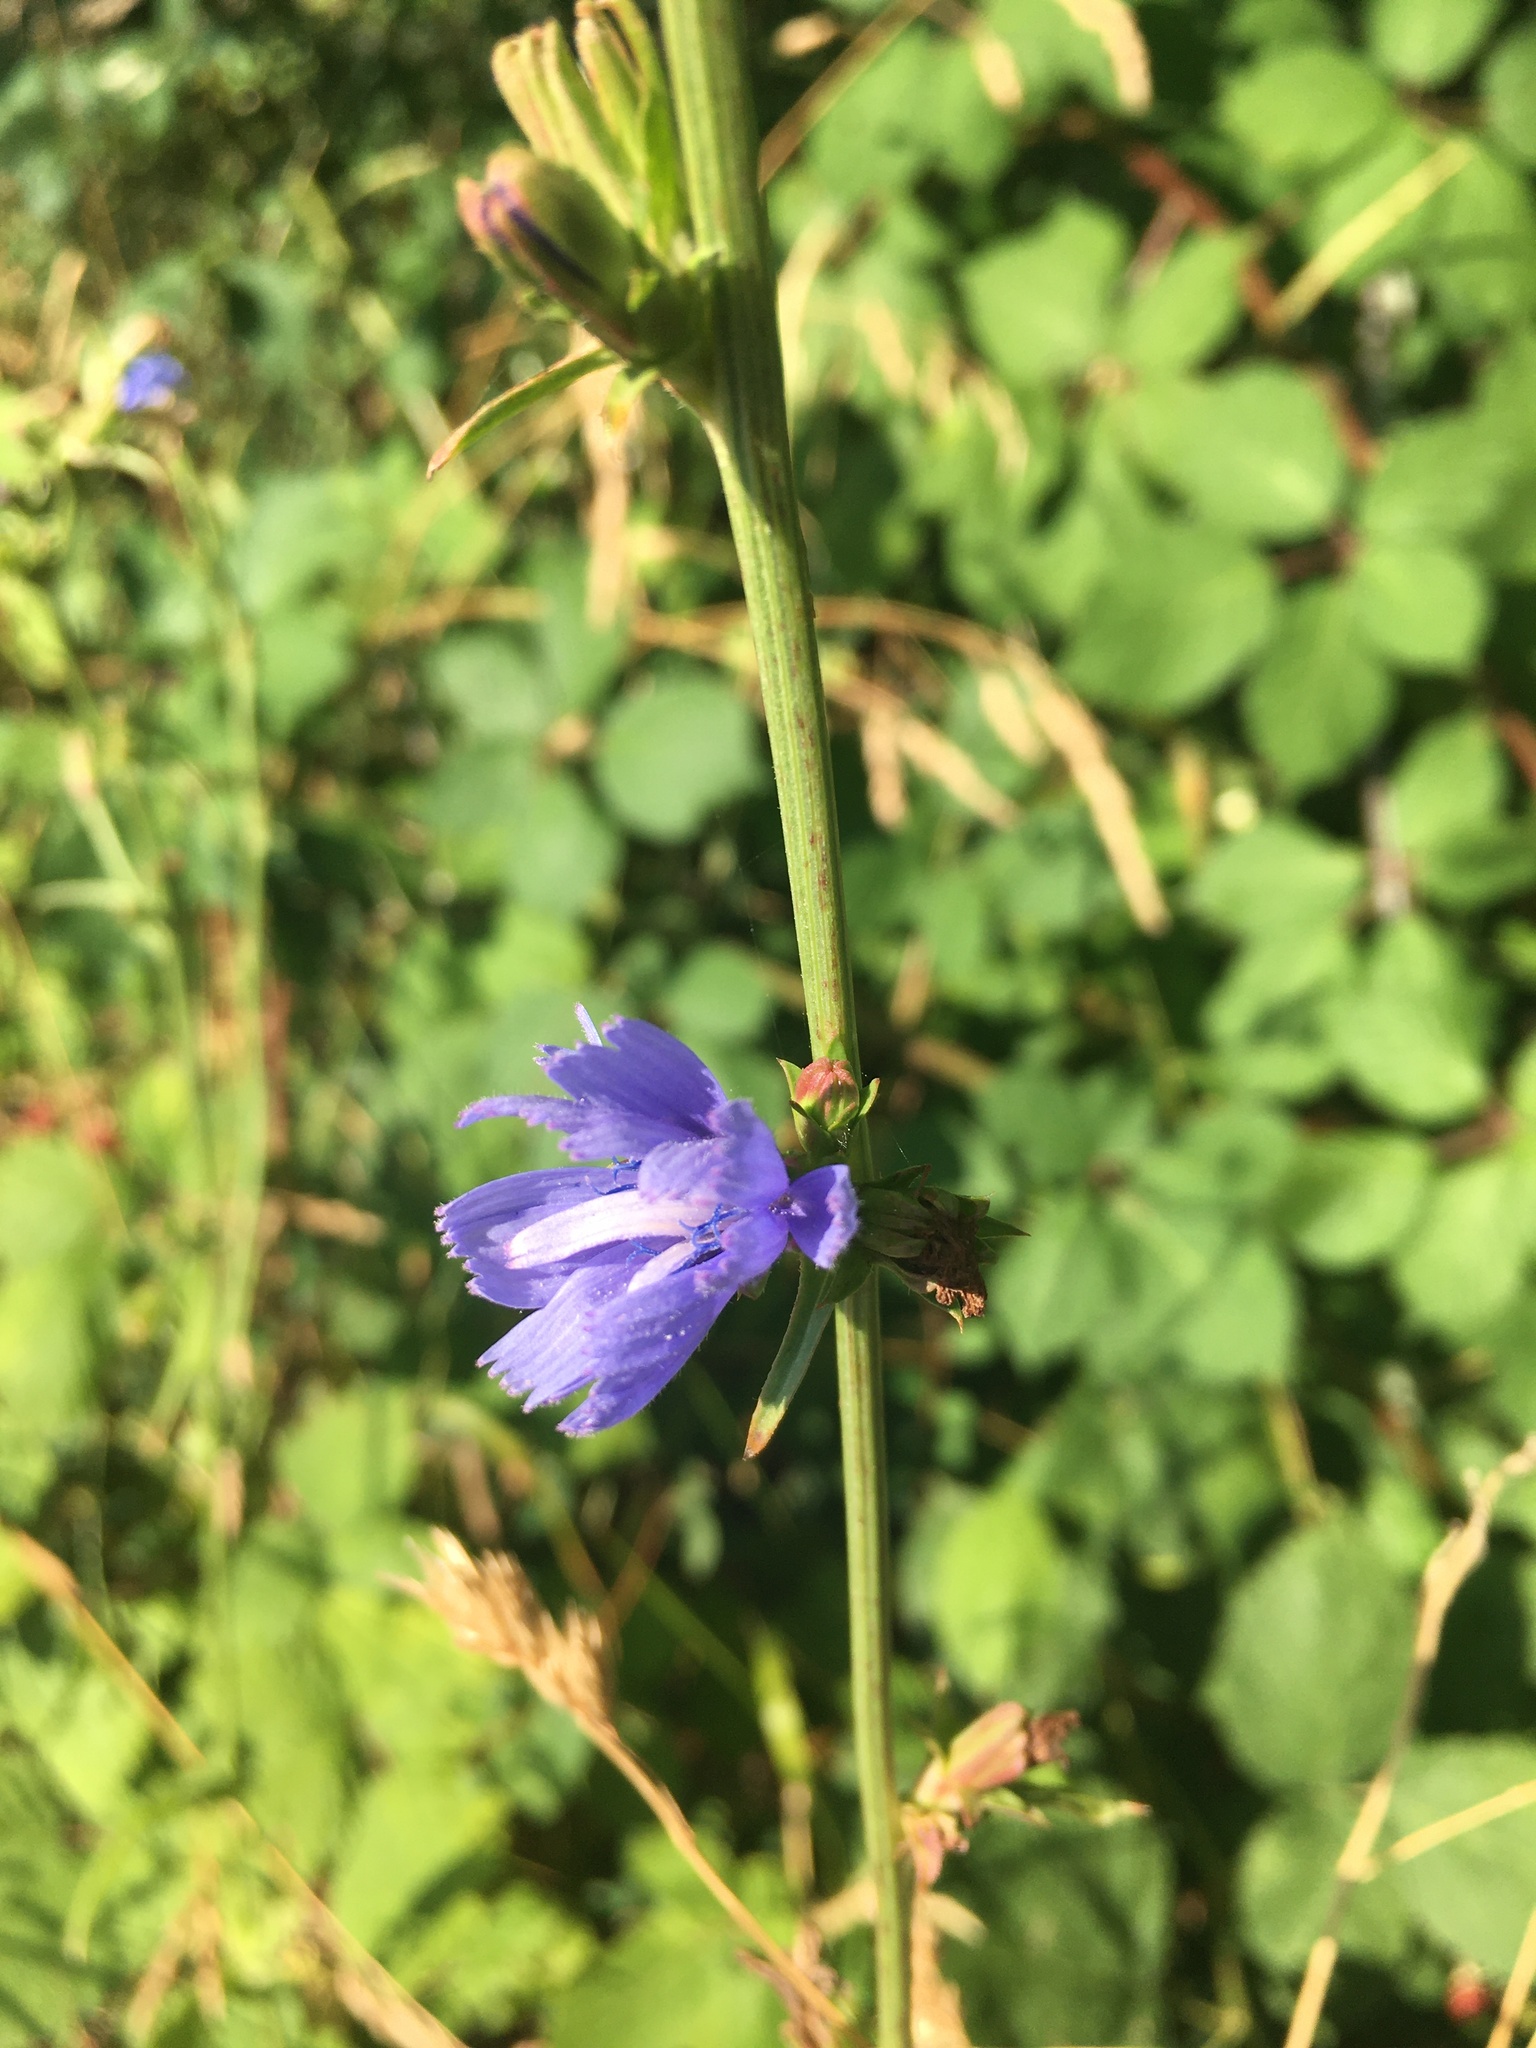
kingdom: Plantae
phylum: Tracheophyta
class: Magnoliopsida
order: Asterales
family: Asteraceae
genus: Cichorium
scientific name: Cichorium intybus
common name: Chicory
